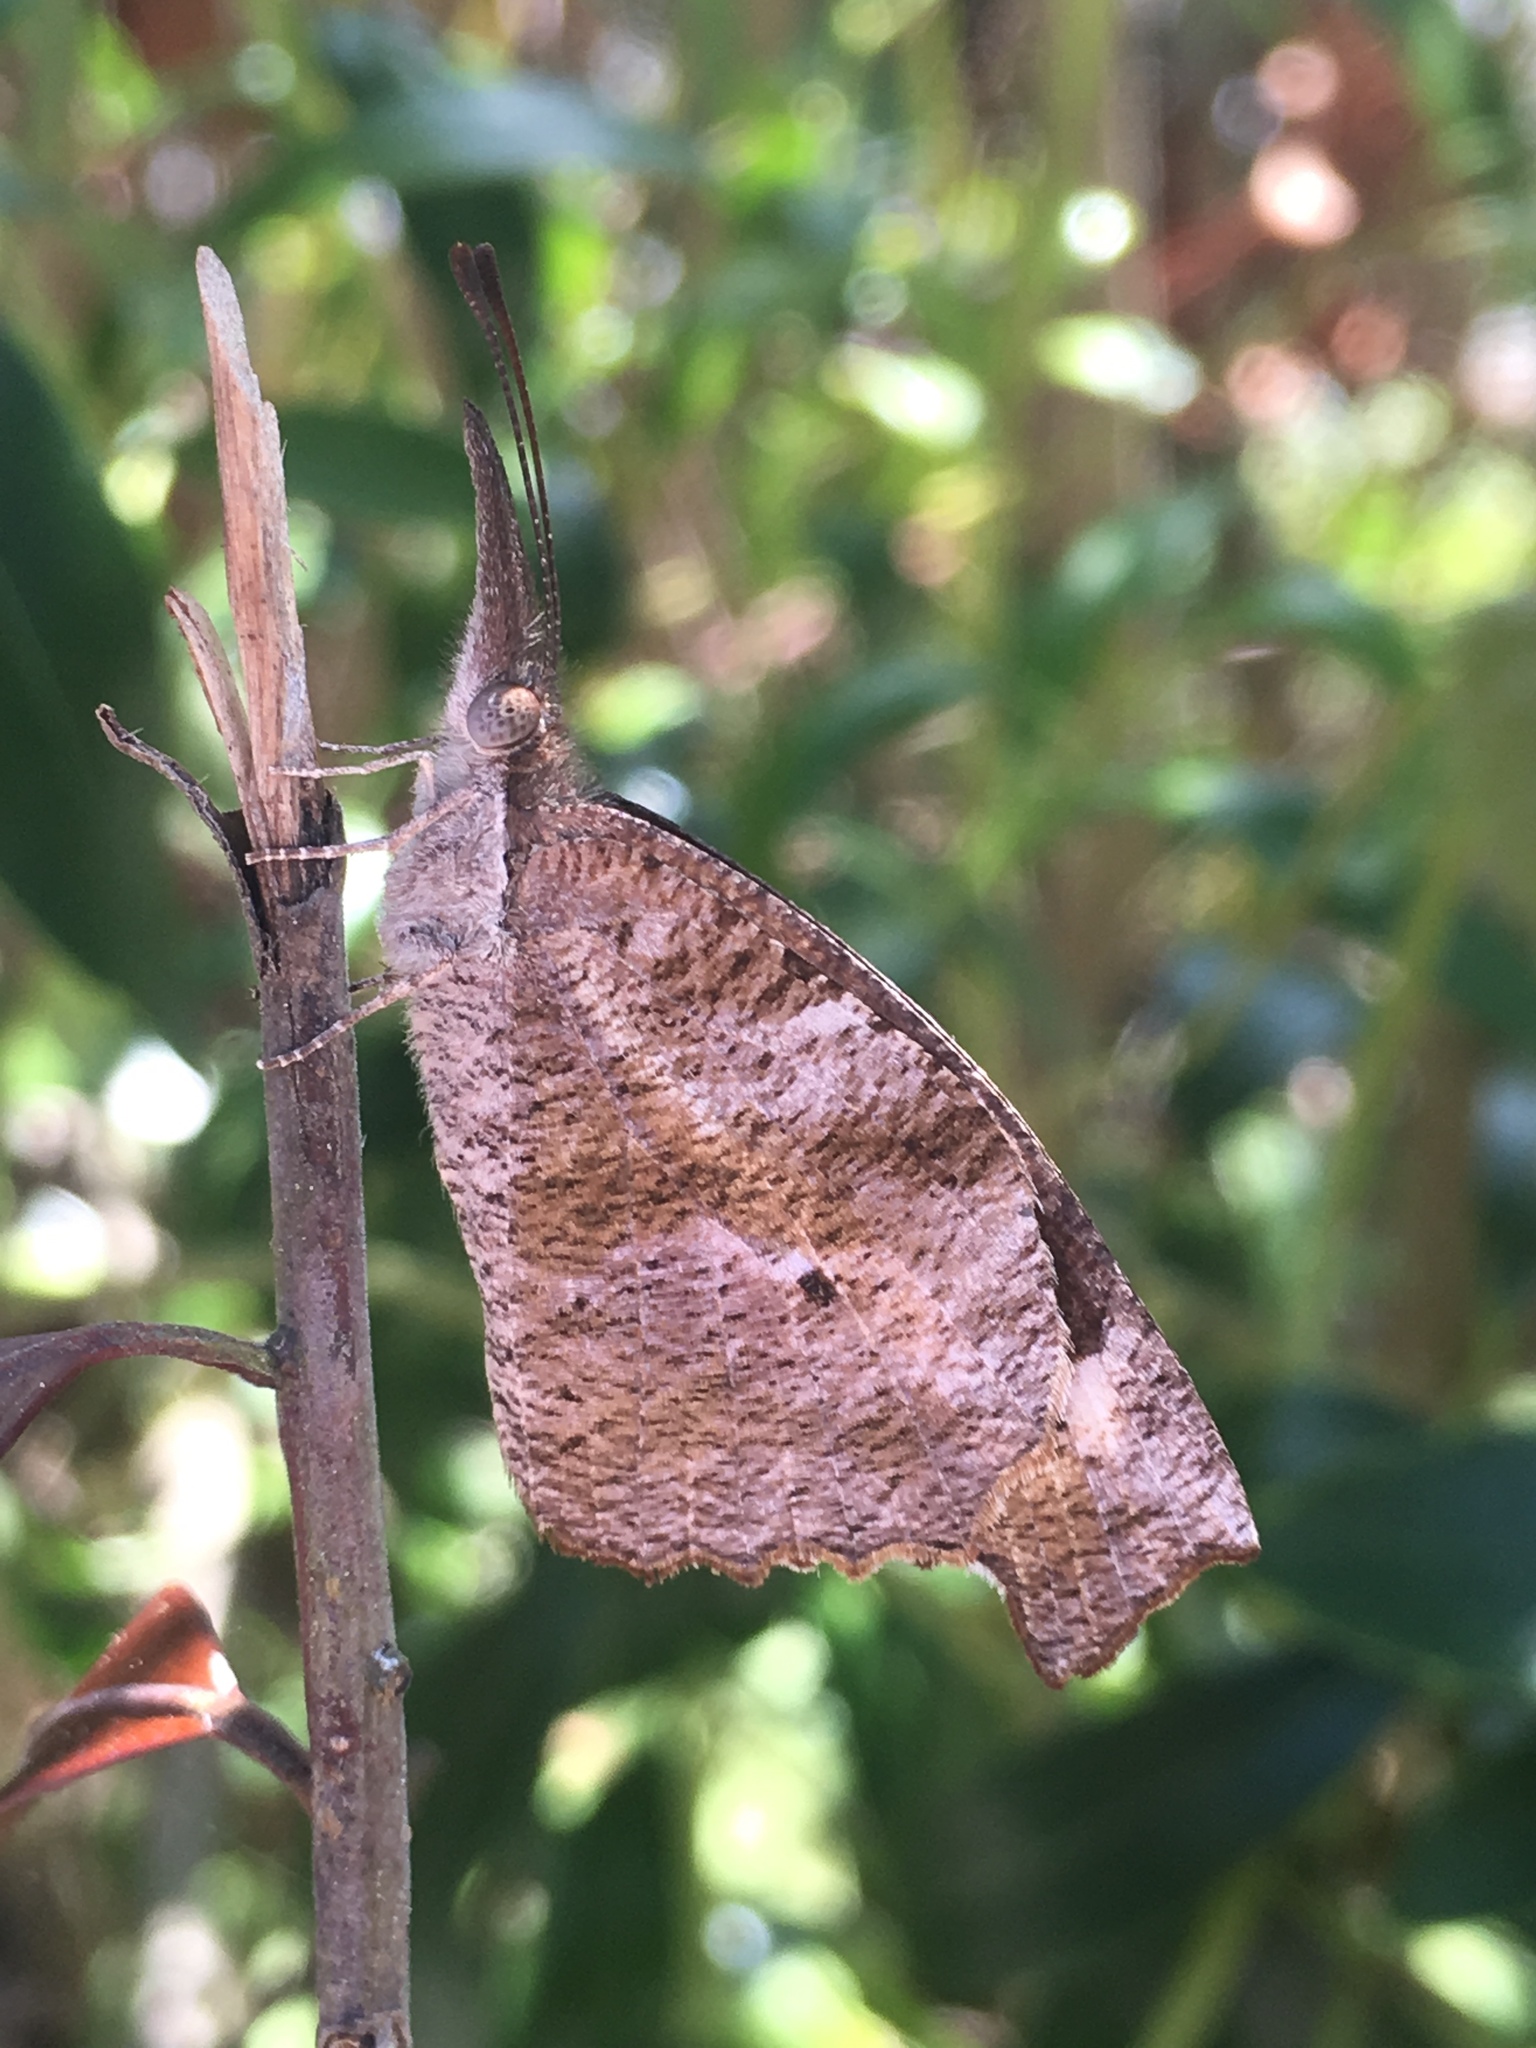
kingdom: Animalia
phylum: Arthropoda
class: Insecta
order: Lepidoptera
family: Nymphalidae
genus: Libytheana
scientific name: Libytheana carinenta
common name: American snout
